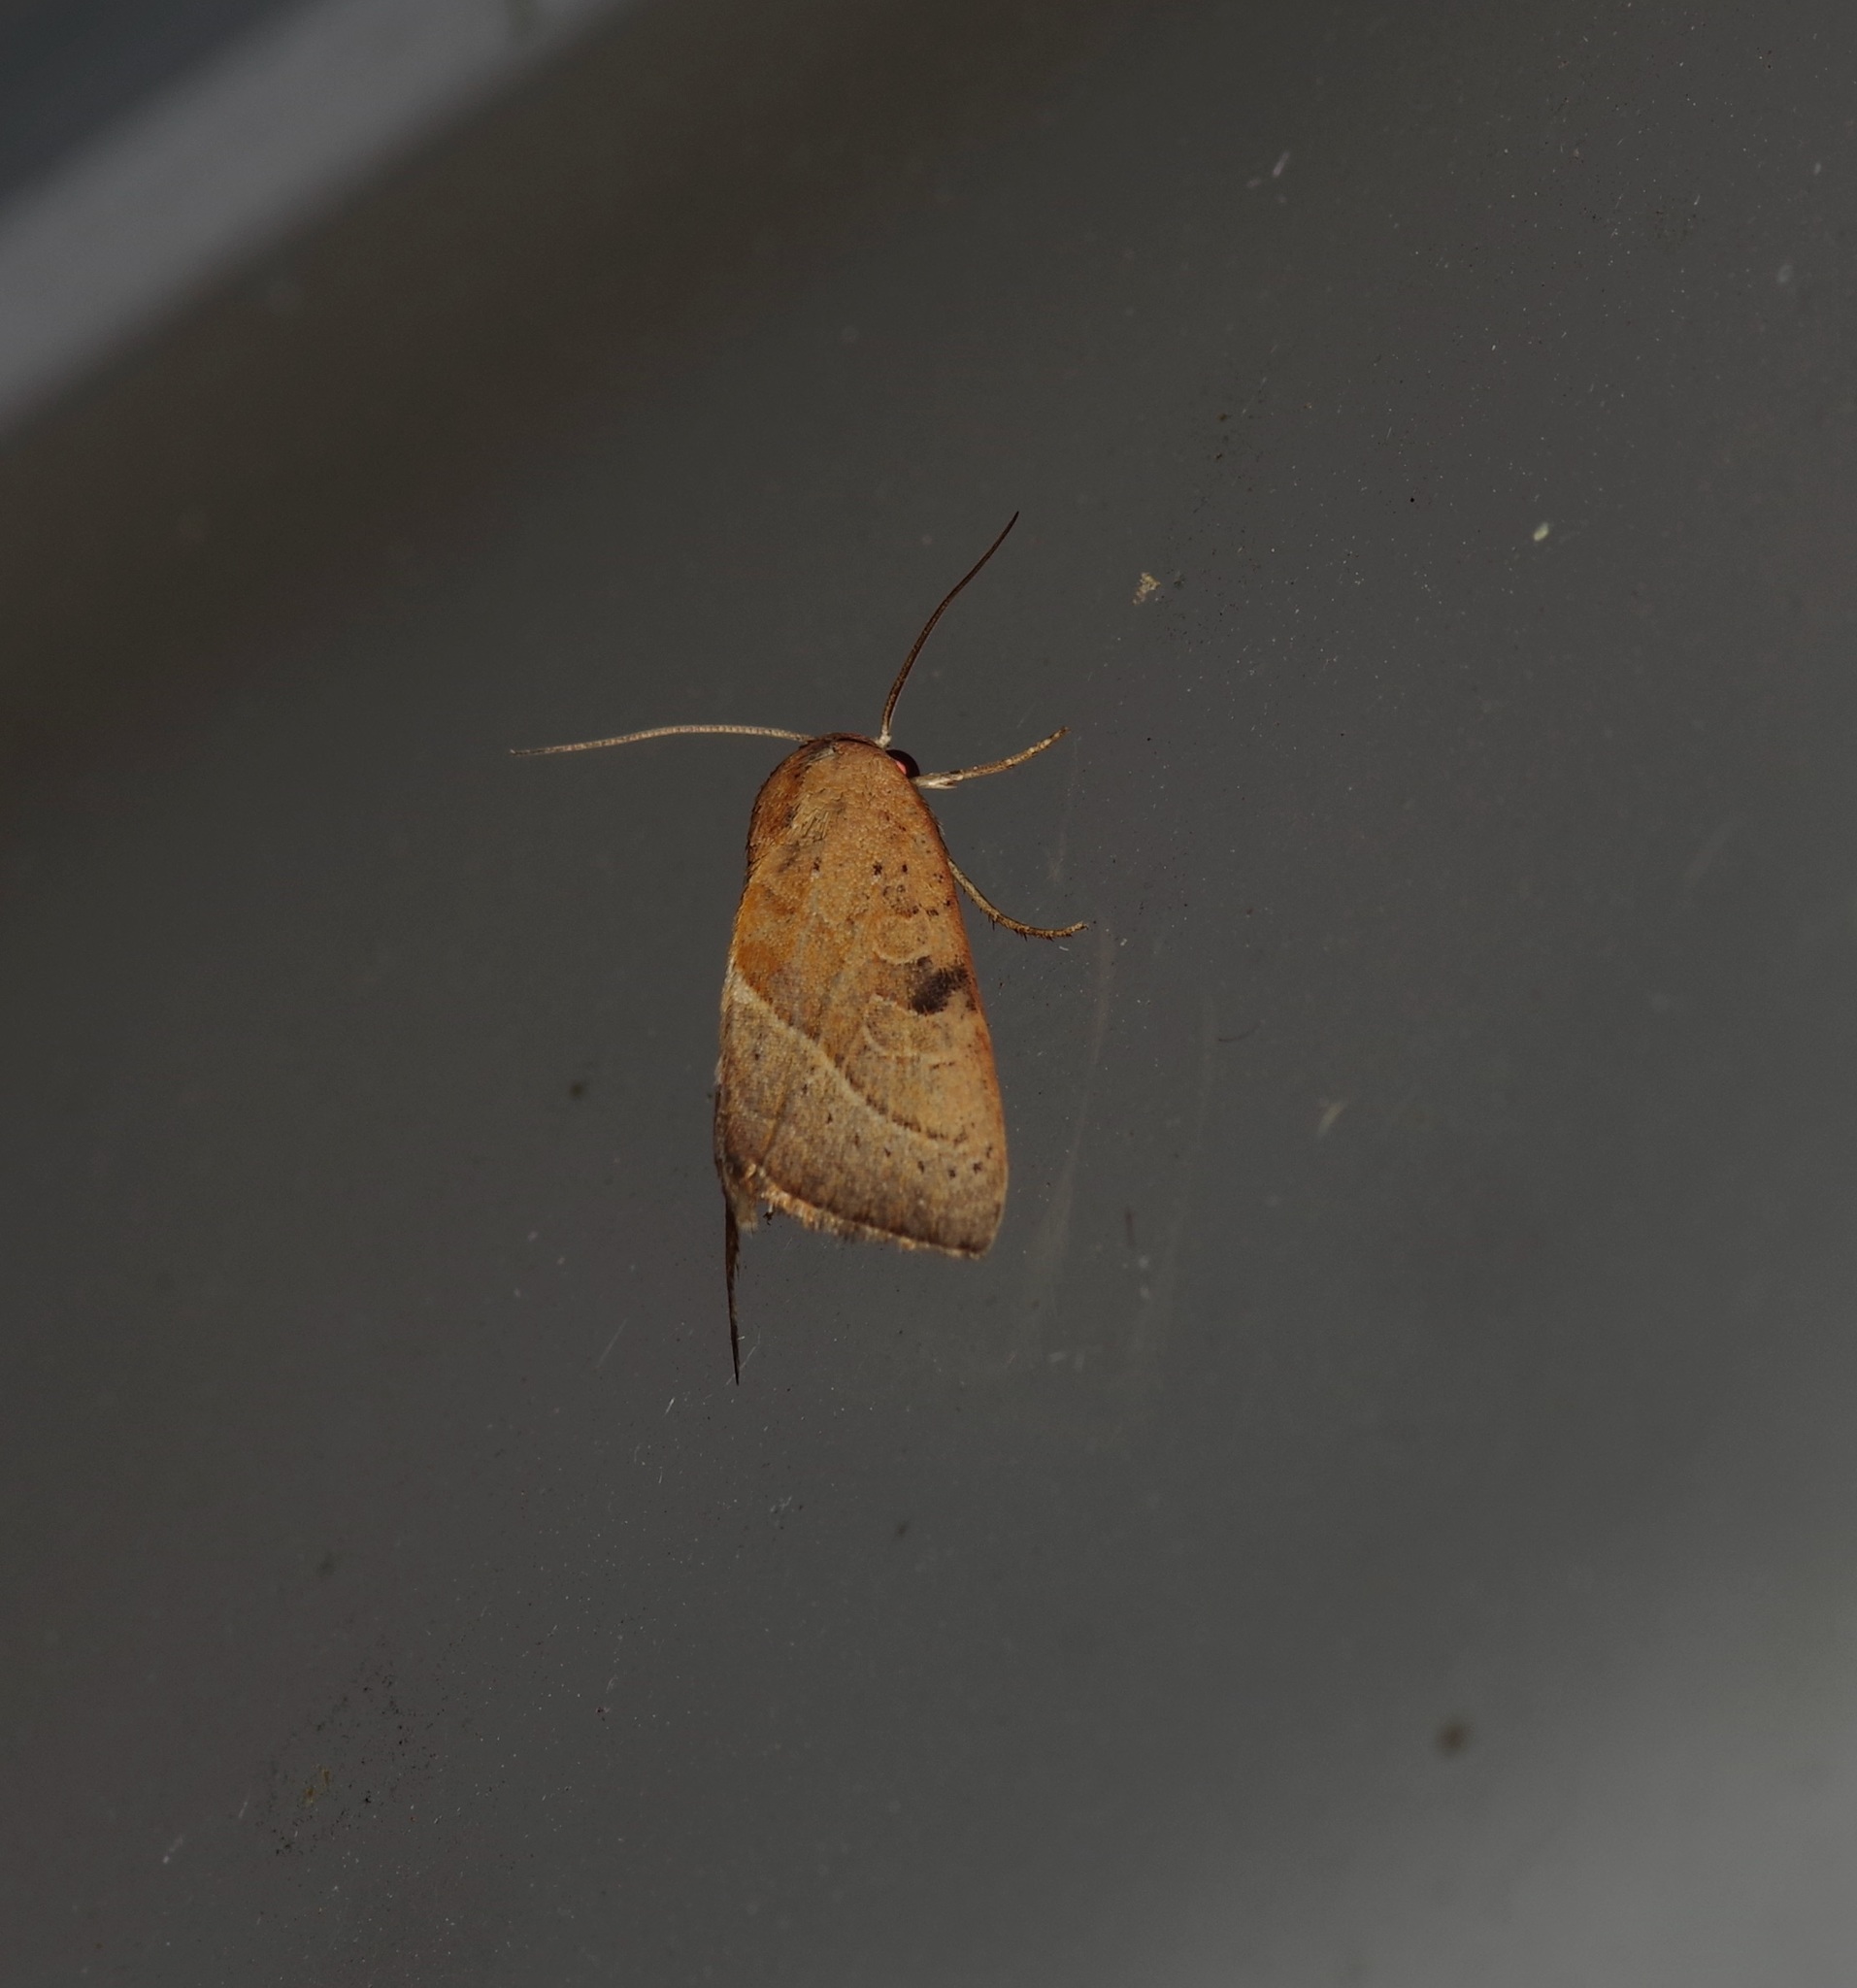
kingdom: Animalia
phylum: Arthropoda
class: Insecta
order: Lepidoptera
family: Noctuidae
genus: Galgula
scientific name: Galgula partita
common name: Wedgeling
